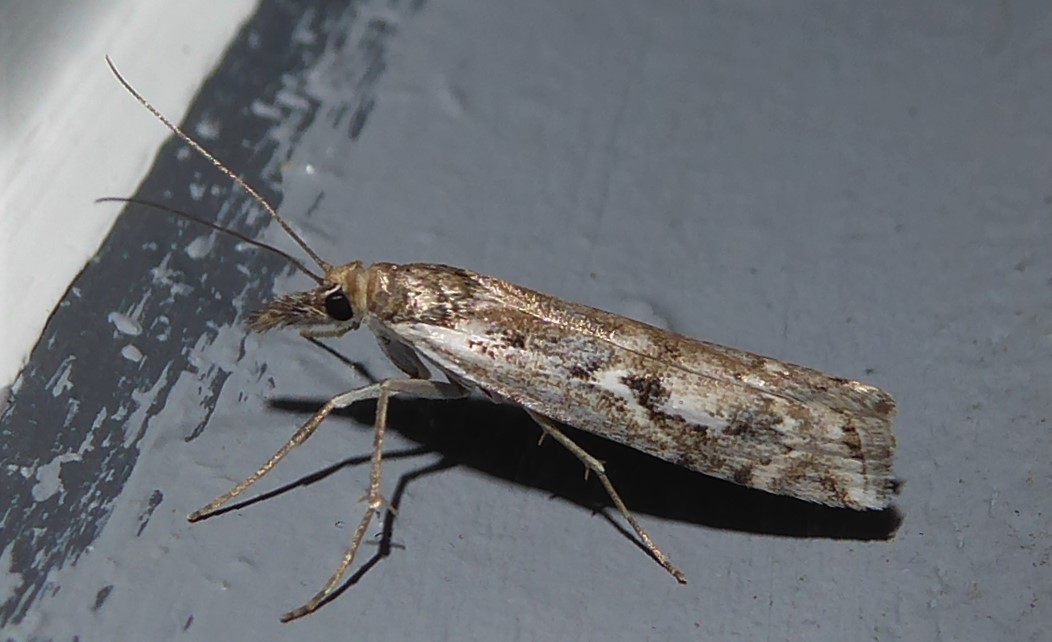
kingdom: Animalia
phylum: Arthropoda
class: Insecta
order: Lepidoptera
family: Crambidae
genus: Orocrambus
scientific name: Orocrambus vulgaris
